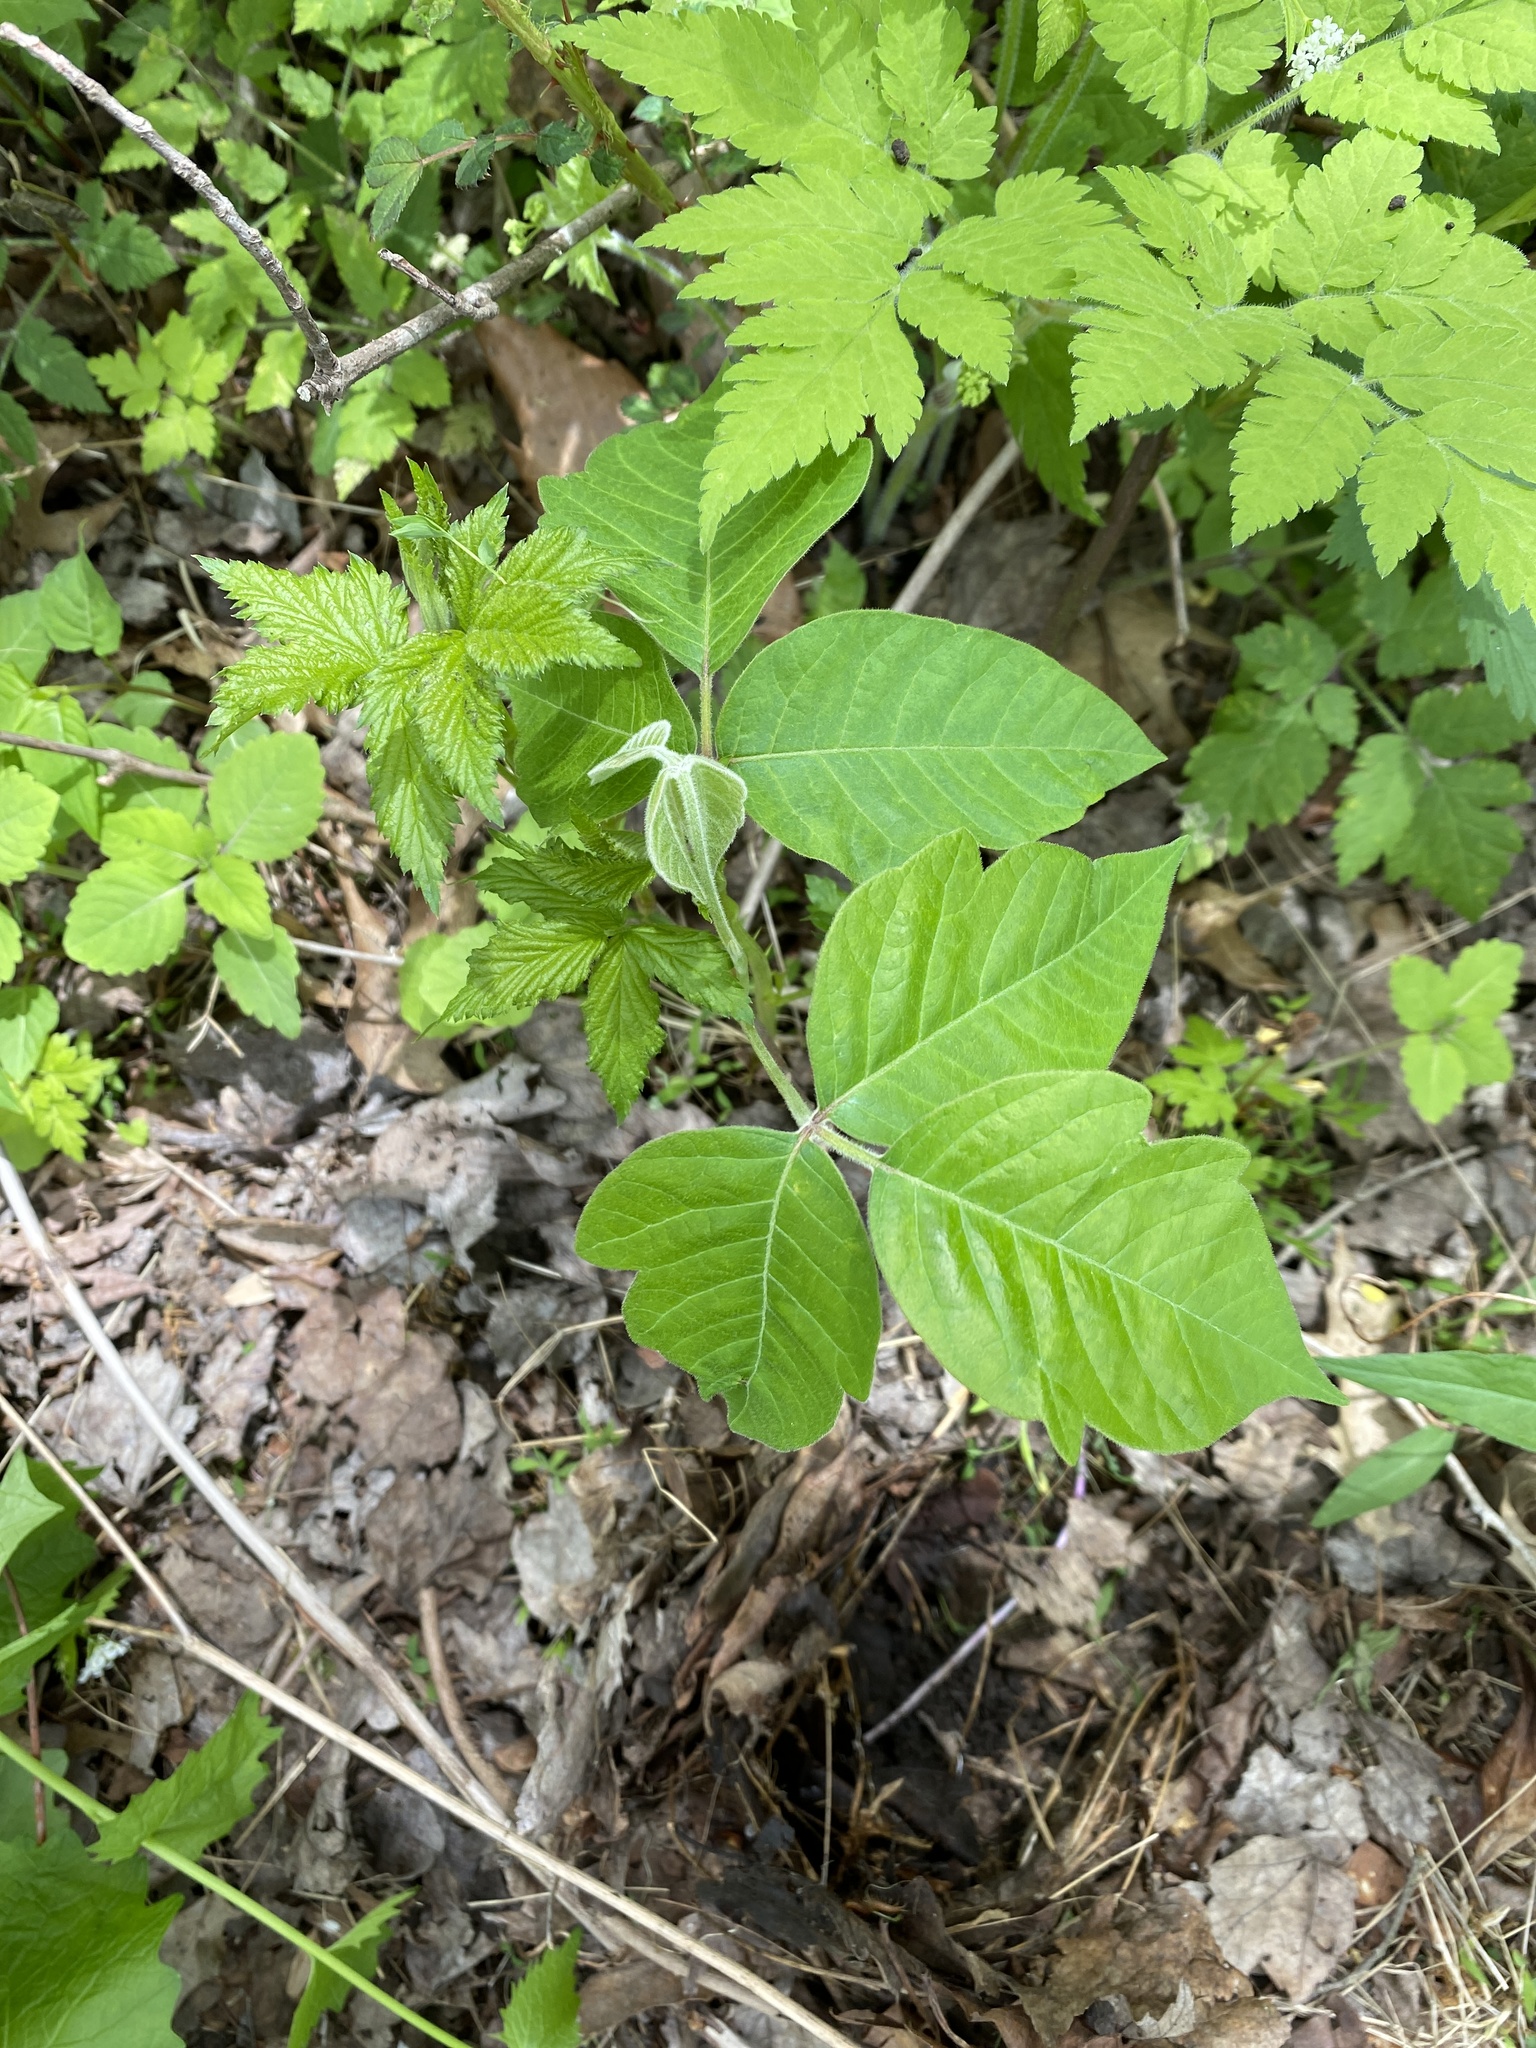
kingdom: Plantae
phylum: Tracheophyta
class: Magnoliopsida
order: Sapindales
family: Anacardiaceae
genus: Toxicodendron
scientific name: Toxicodendron radicans
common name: Poison ivy
